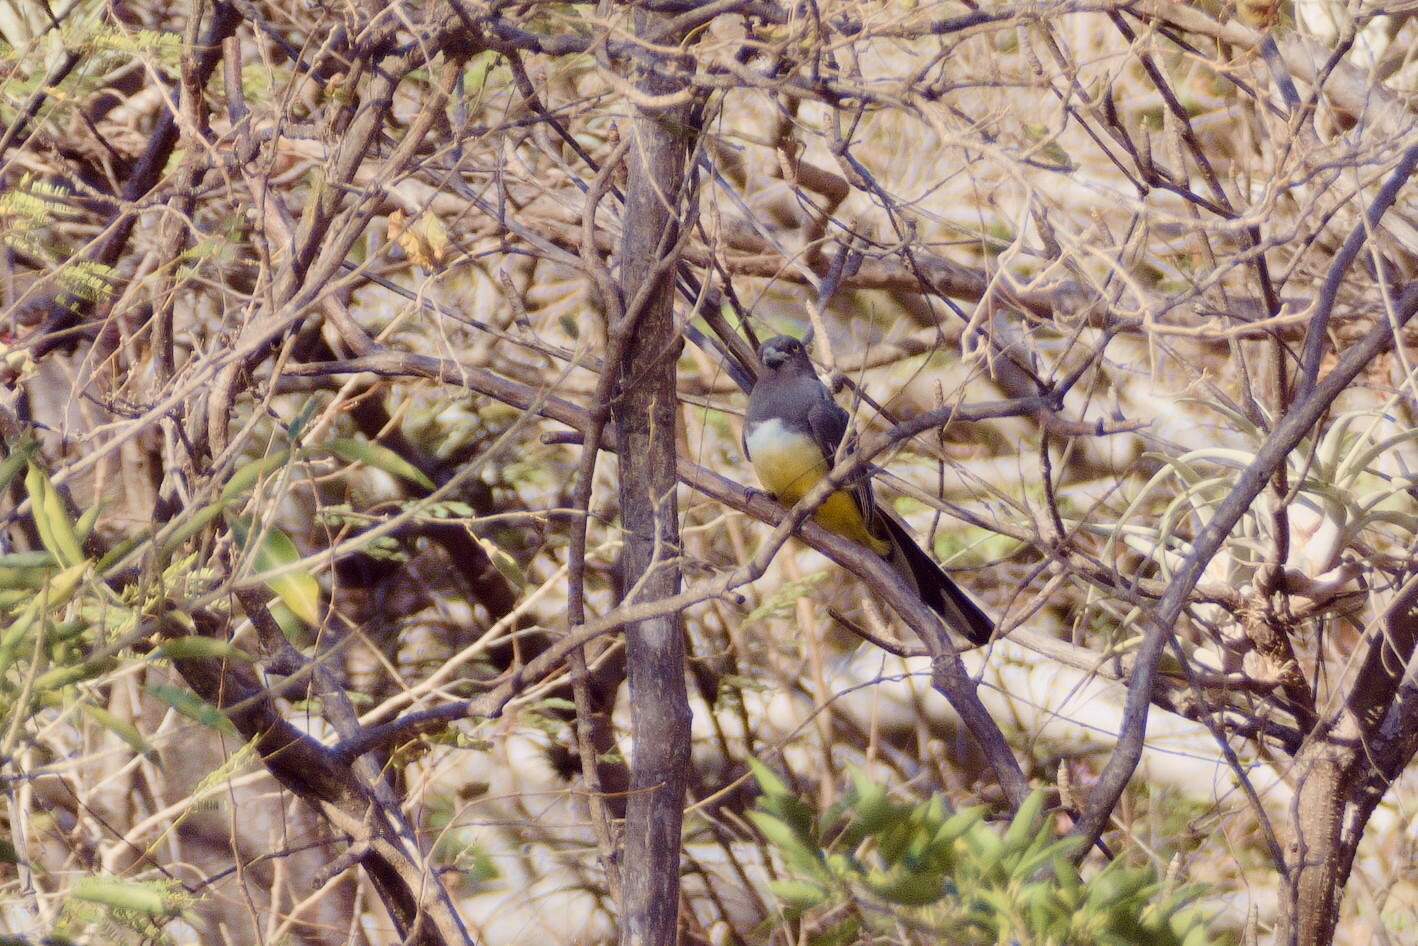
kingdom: Animalia
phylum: Chordata
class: Aves
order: Trogoniformes
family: Trogonidae
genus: Trogon
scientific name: Trogon citreolus
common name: Citreoline trogon
